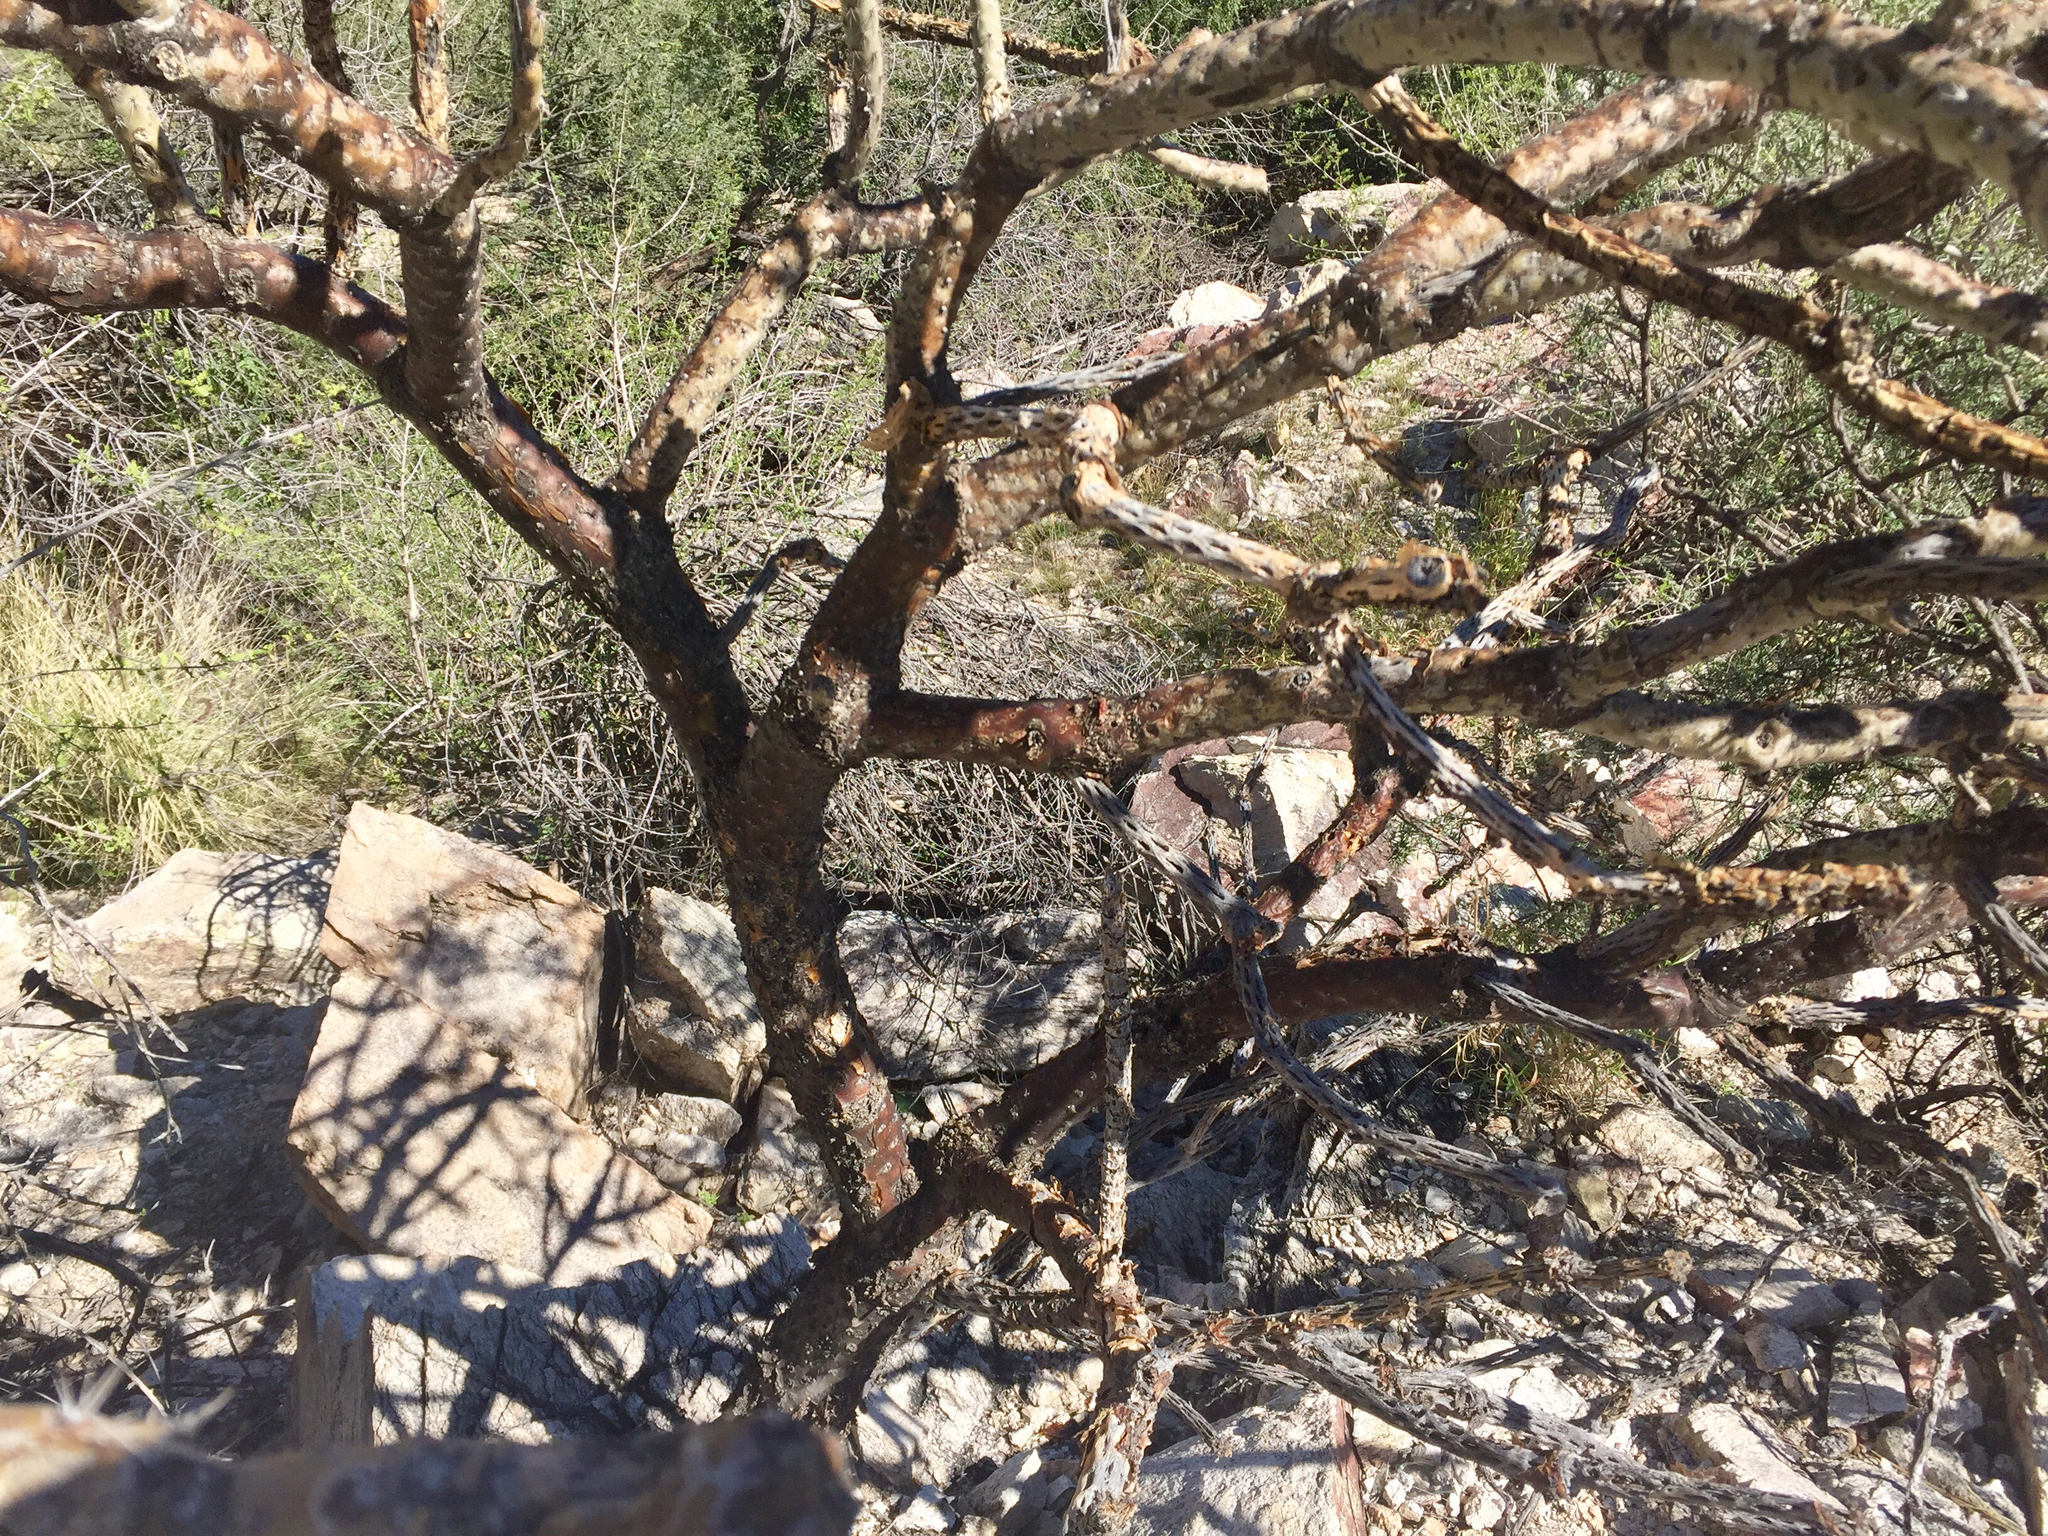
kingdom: Plantae
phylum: Tracheophyta
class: Magnoliopsida
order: Caryophyllales
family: Cactaceae
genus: Cylindropuntia
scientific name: Cylindropuntia arbuscula
